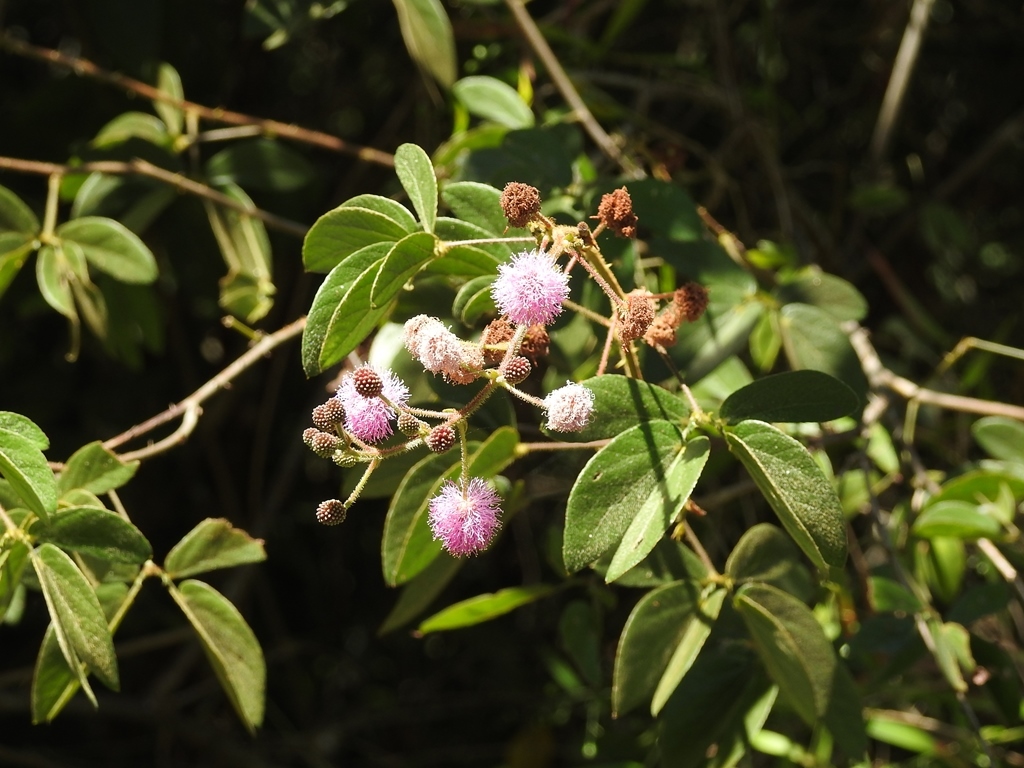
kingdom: Plantae
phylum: Tracheophyta
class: Magnoliopsida
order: Fabales
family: Fabaceae
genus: Mimosa
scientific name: Mimosa albida
